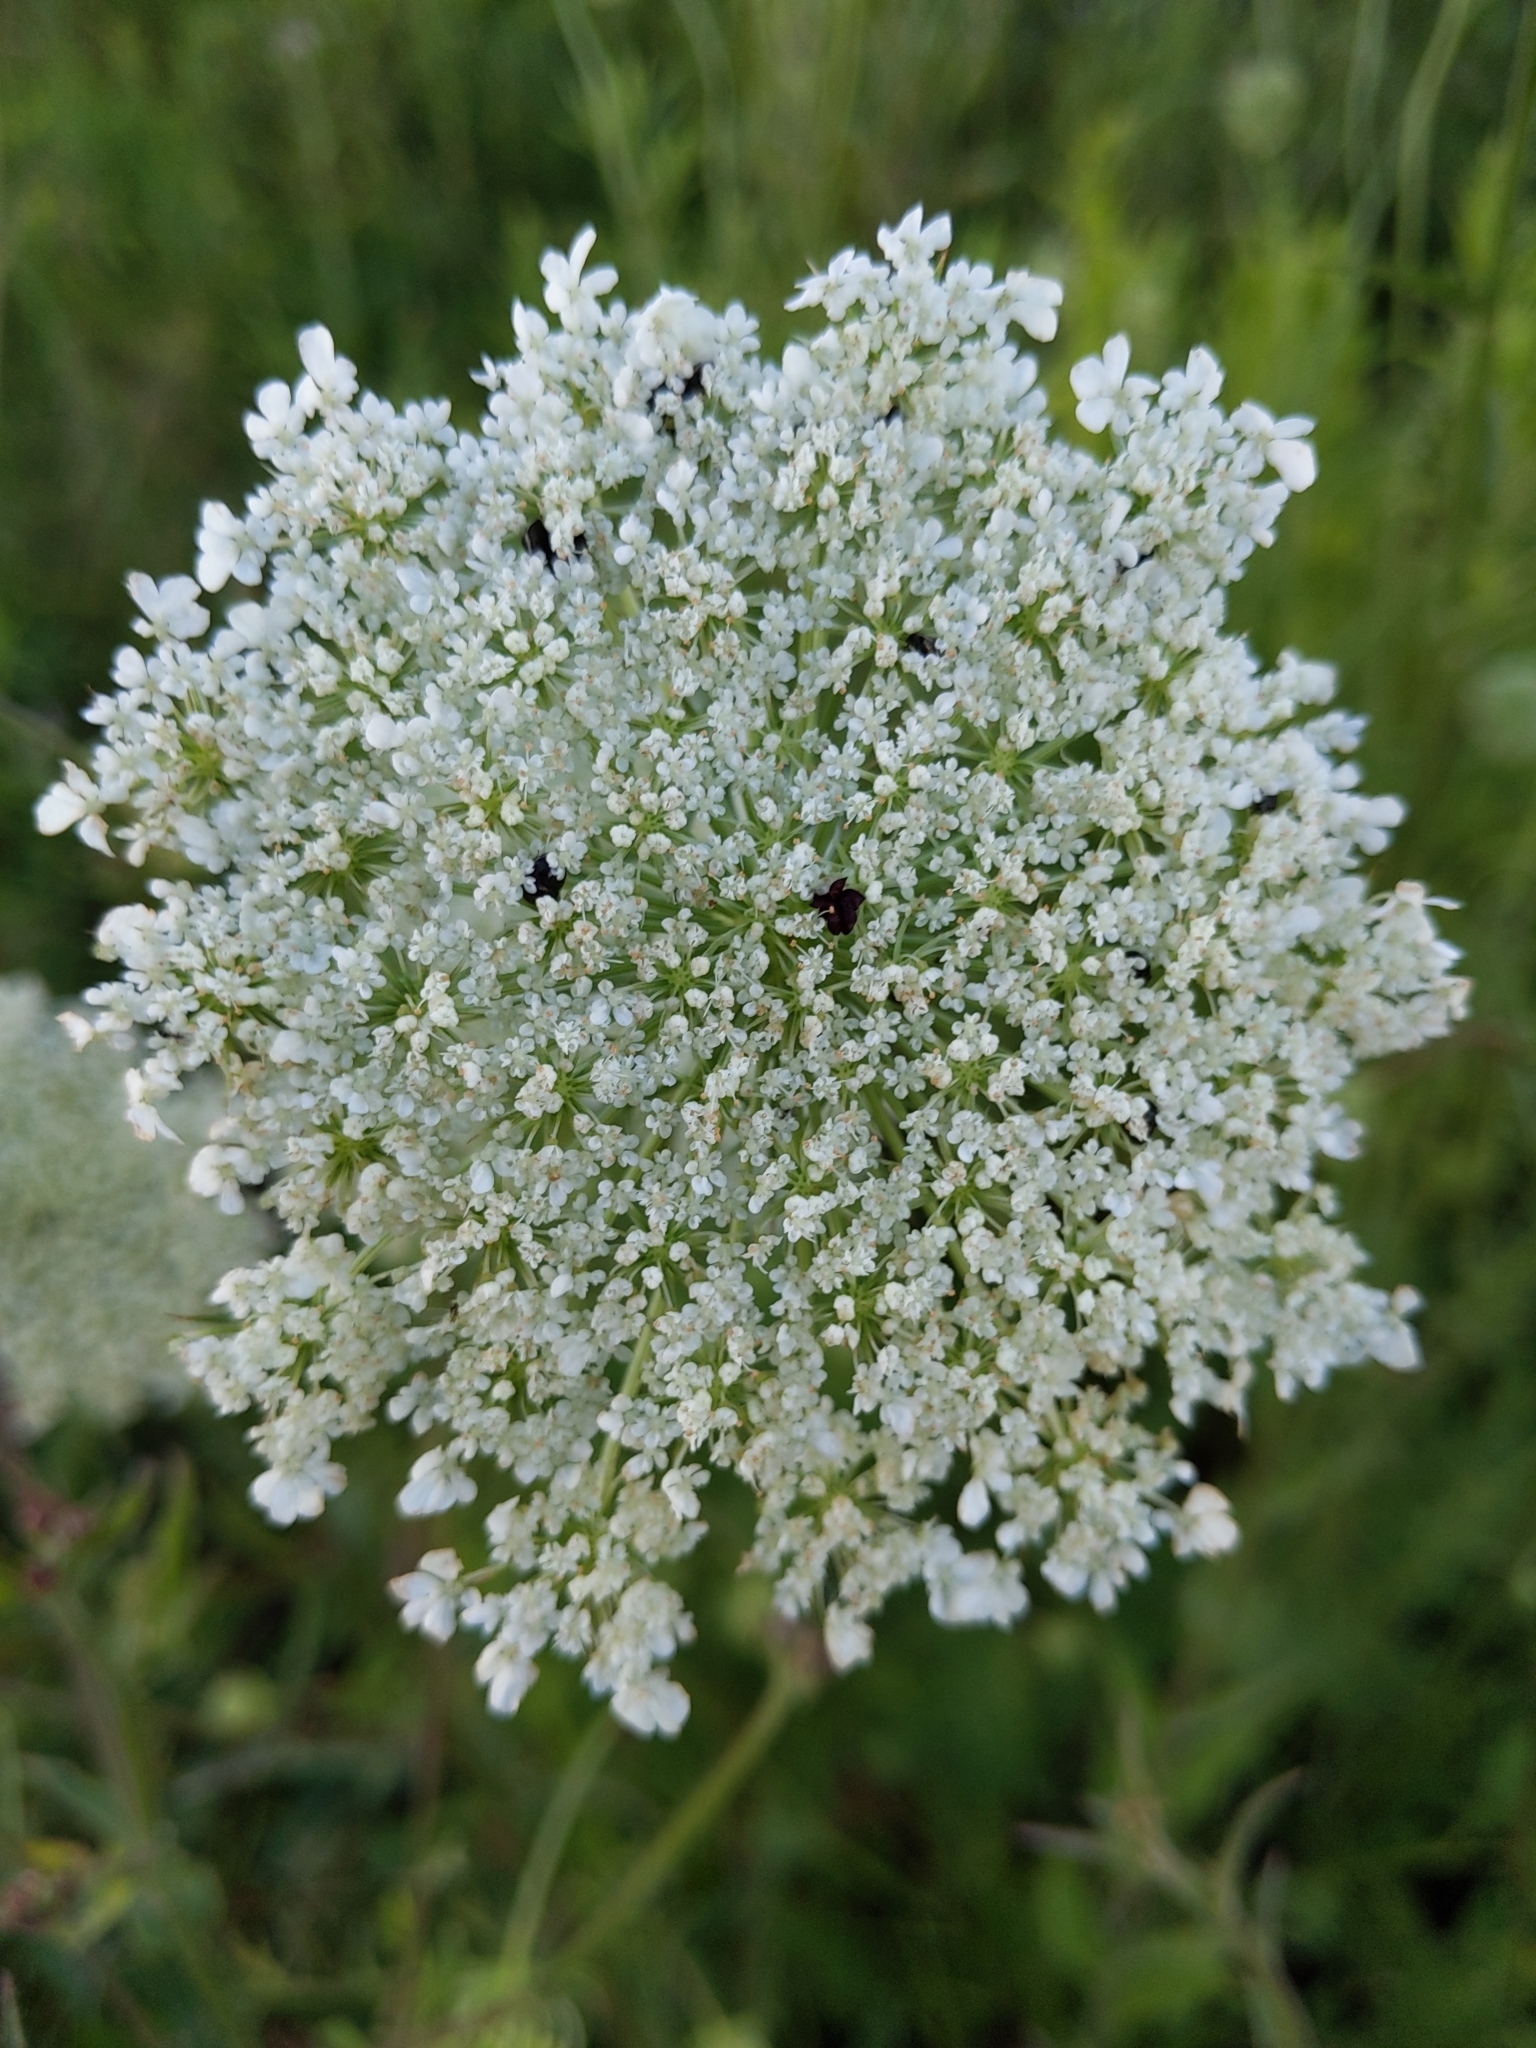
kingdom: Plantae
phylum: Tracheophyta
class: Magnoliopsida
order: Apiales
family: Apiaceae
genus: Daucus
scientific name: Daucus carota
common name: Wild carrot
